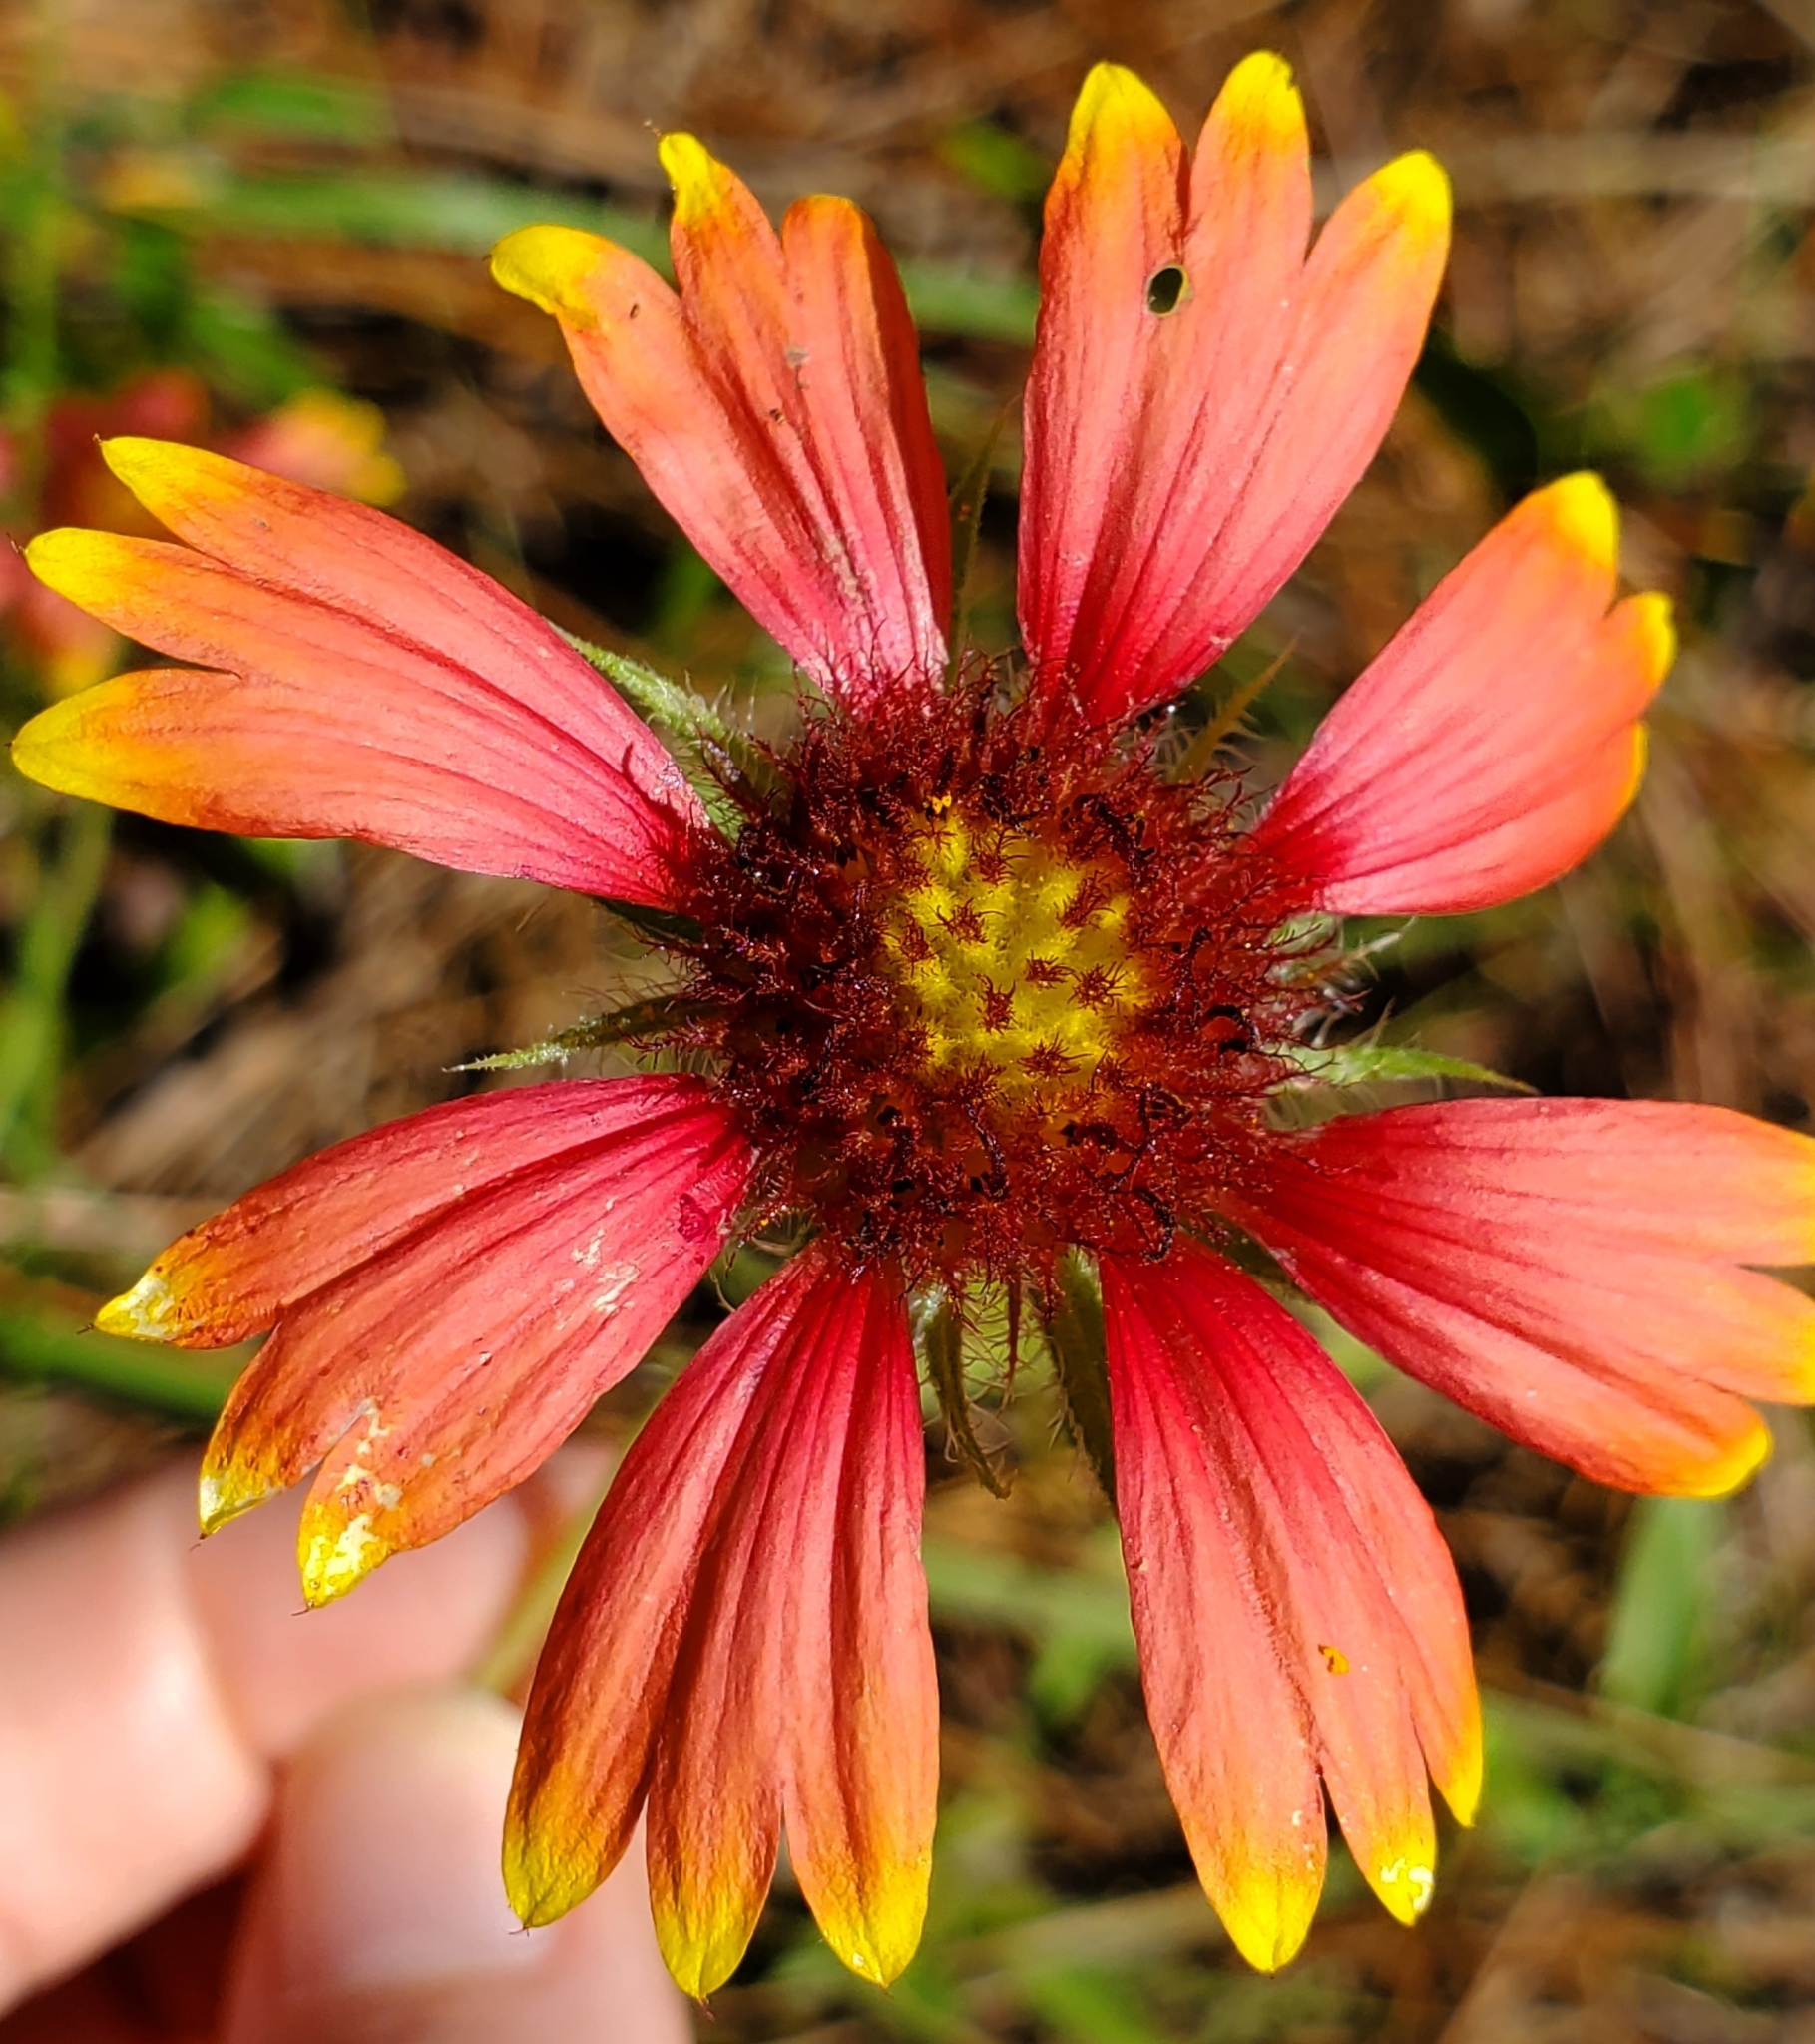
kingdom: Plantae
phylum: Tracheophyta
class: Magnoliopsida
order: Asterales
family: Asteraceae
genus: Gaillardia
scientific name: Gaillardia pulchella
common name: Firewheel
